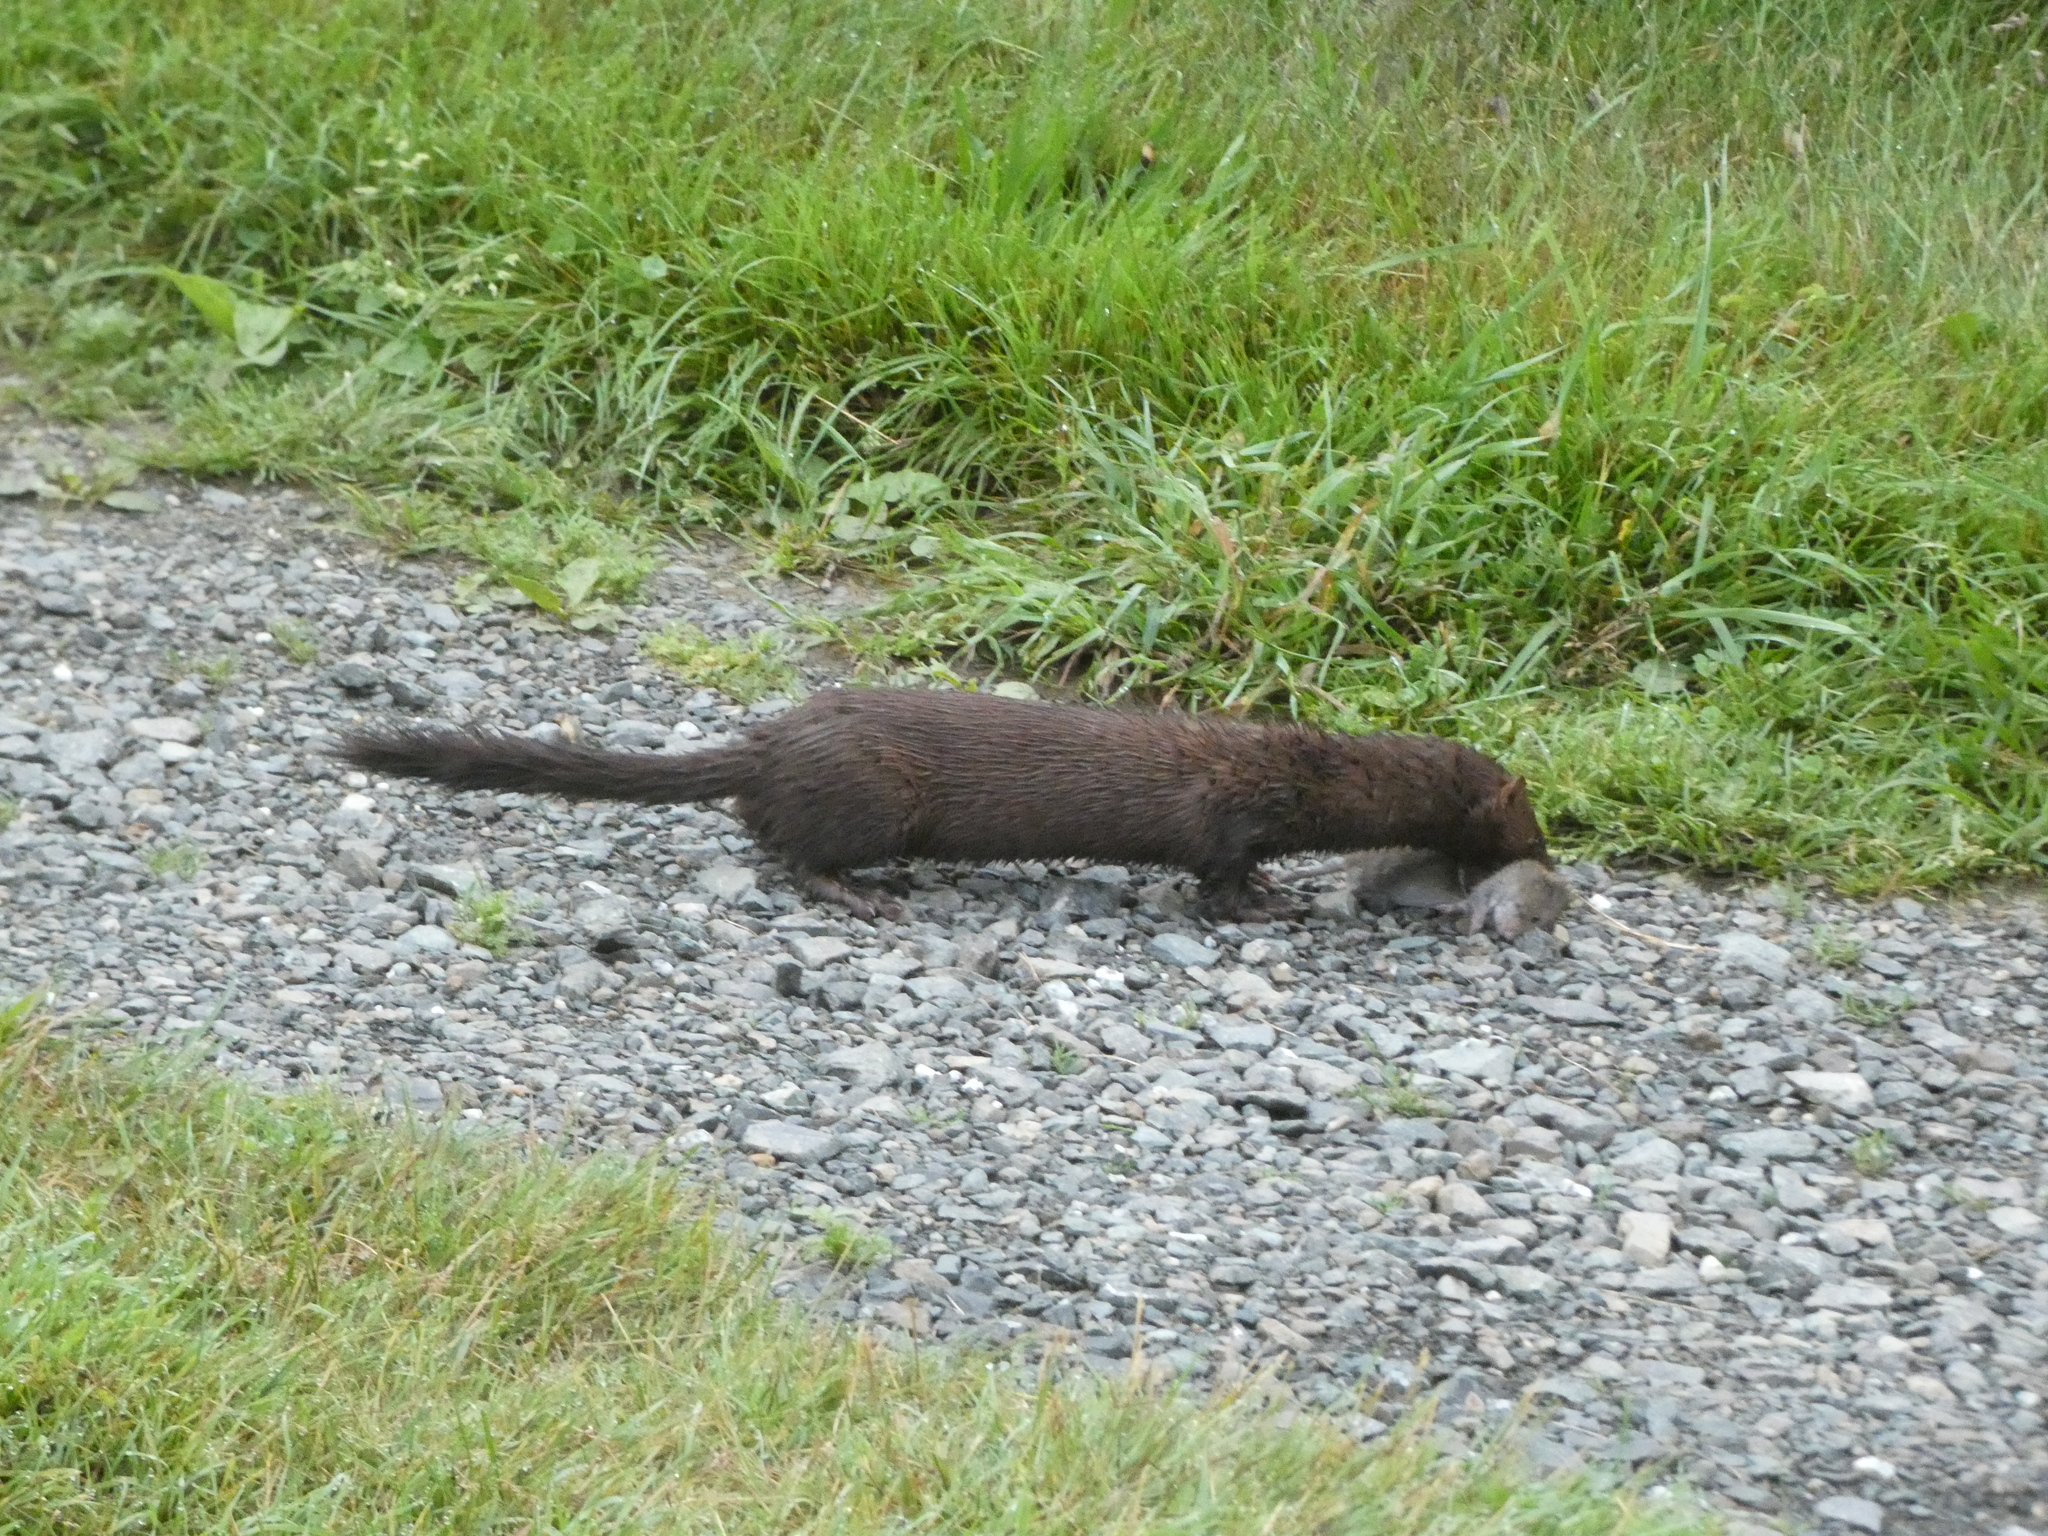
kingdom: Animalia
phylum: Chordata
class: Mammalia
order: Carnivora
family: Mustelidae
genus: Mustela
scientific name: Mustela
